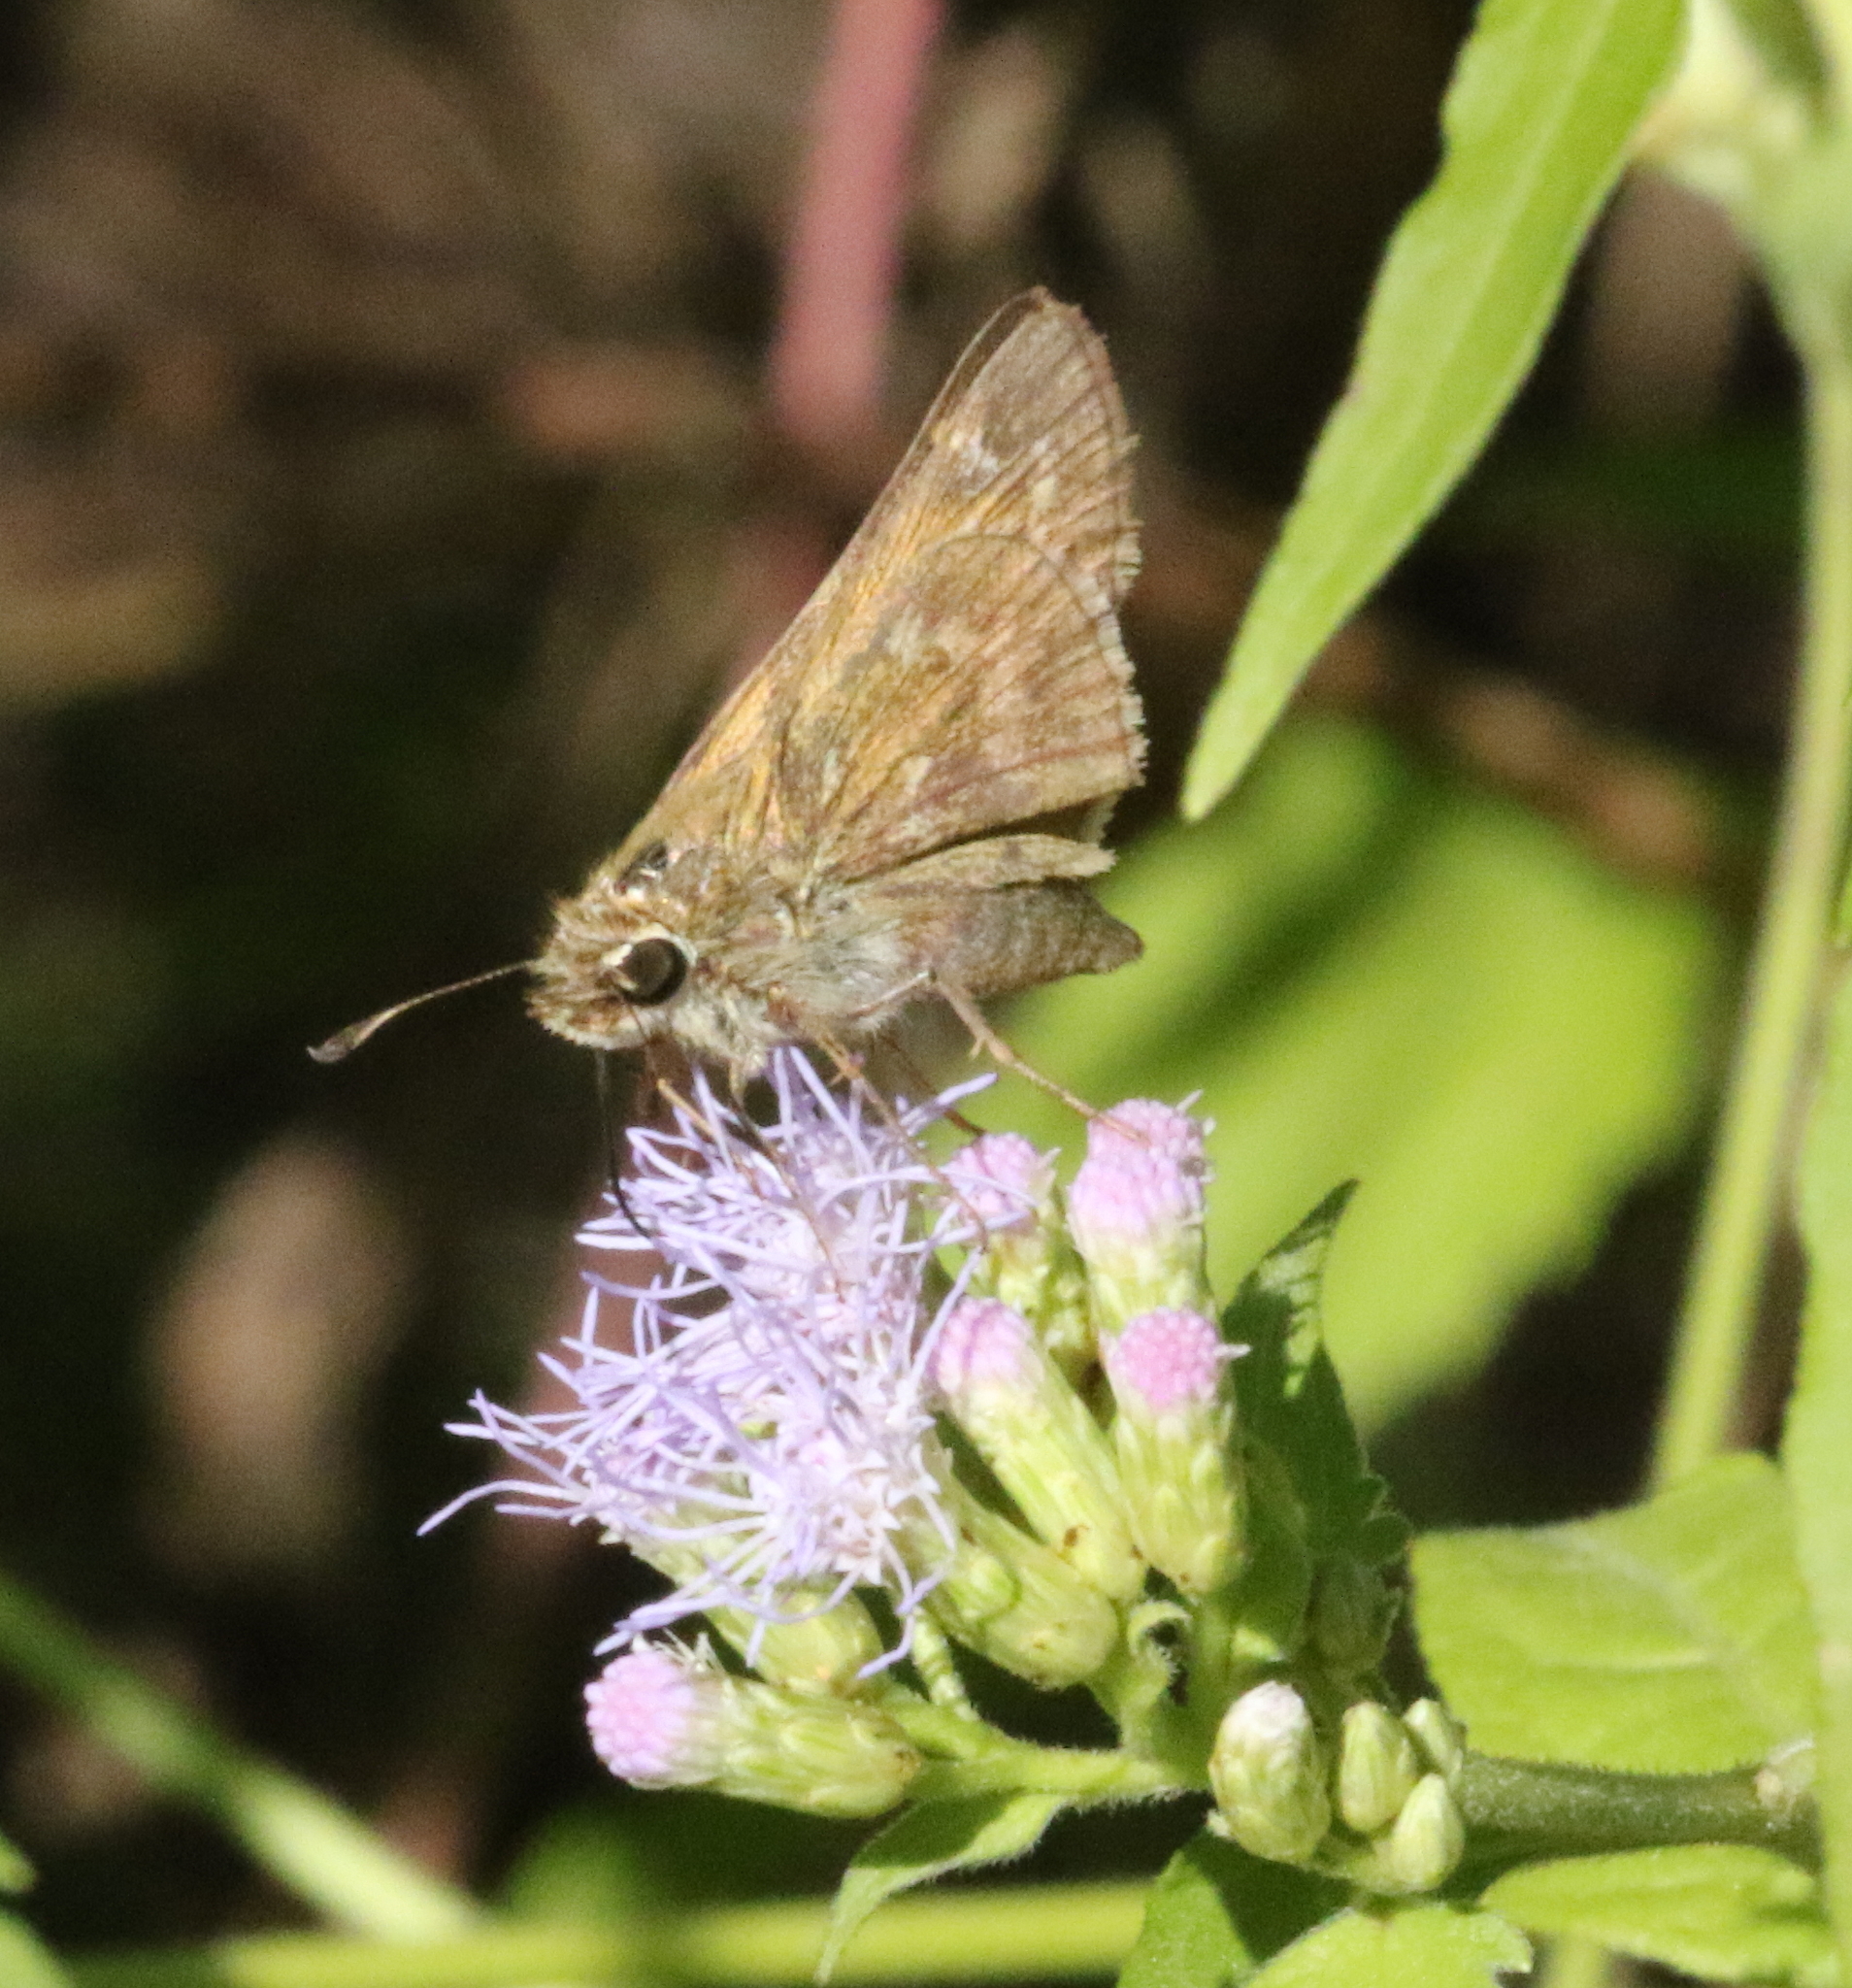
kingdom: Animalia
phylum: Arthropoda
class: Insecta
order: Lepidoptera
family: Hesperiidae
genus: Atalopedes
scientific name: Atalopedes
